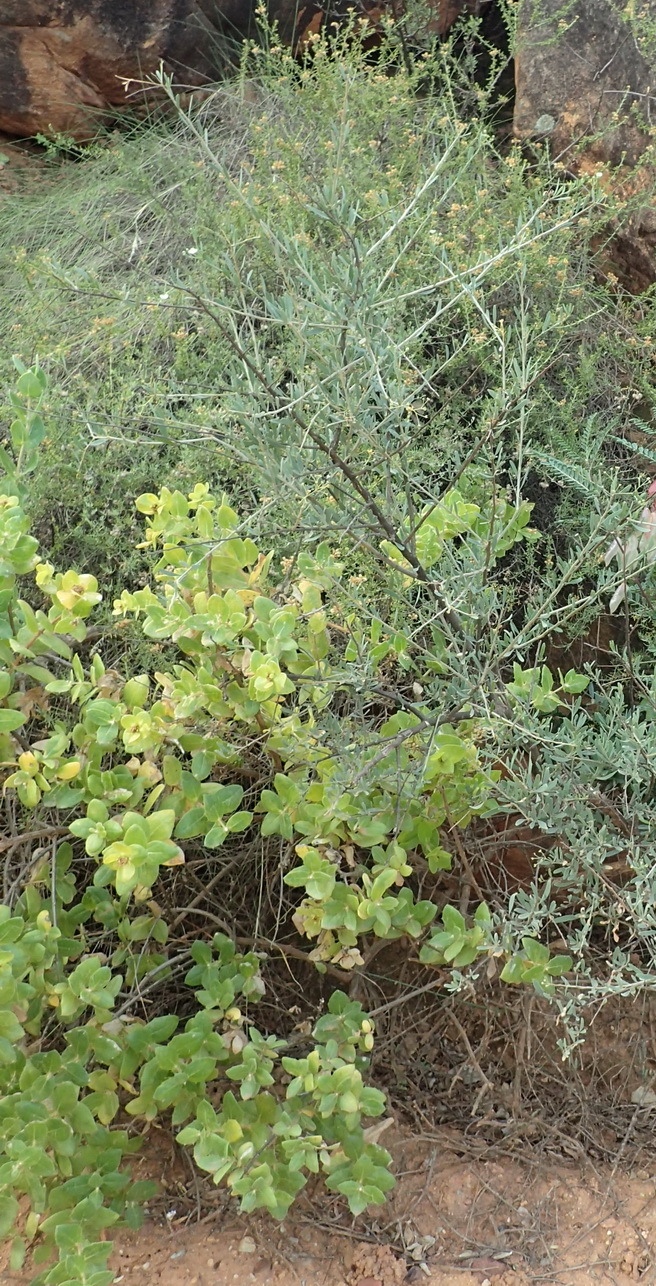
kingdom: Plantae
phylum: Tracheophyta
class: Magnoliopsida
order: Solanales
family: Montiniaceae
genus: Montinia
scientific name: Montinia caryophyllacea
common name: Wild clove-bush
